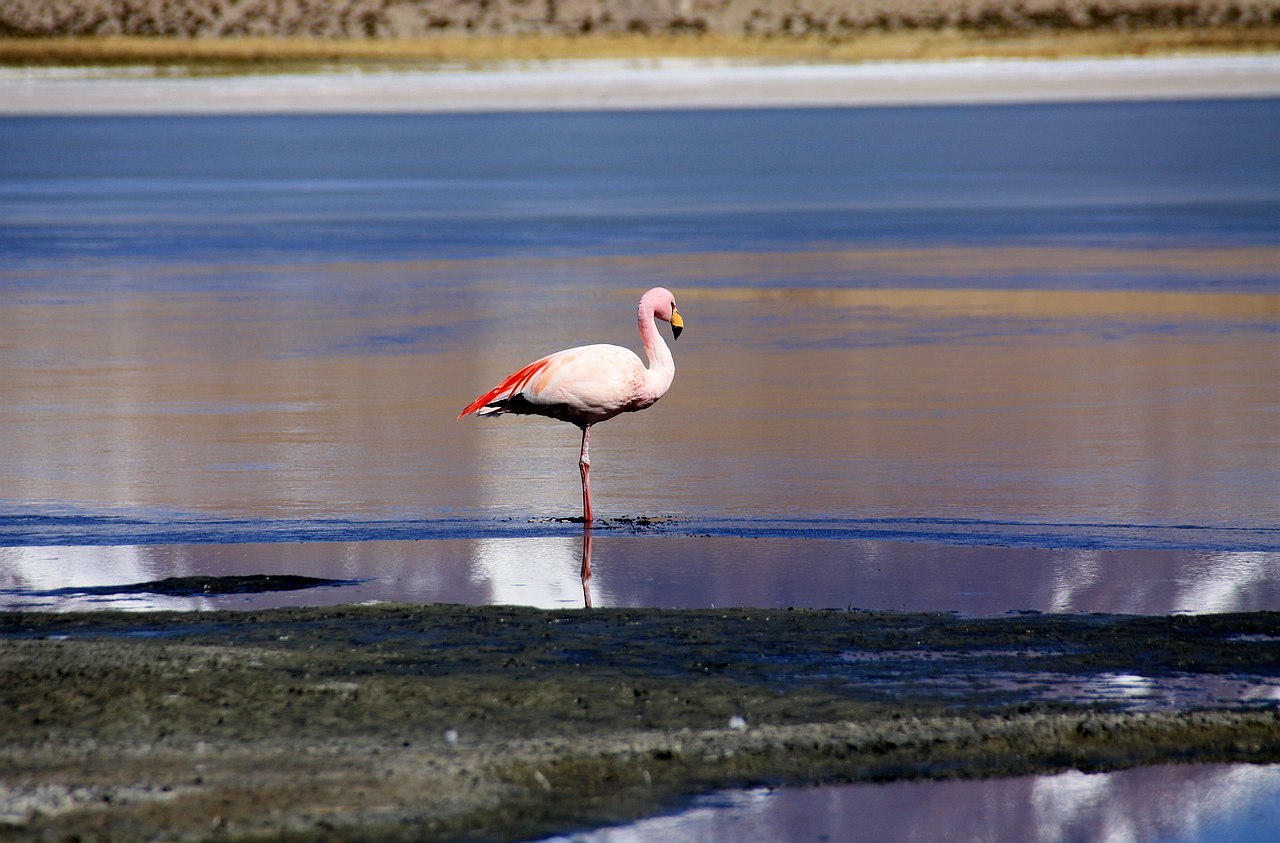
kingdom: Animalia
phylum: Chordata
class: Aves
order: Phoenicopteriformes
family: Phoenicopteridae
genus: Phoenicoparrus
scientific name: Phoenicoparrus jamesi
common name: James's flamingo
